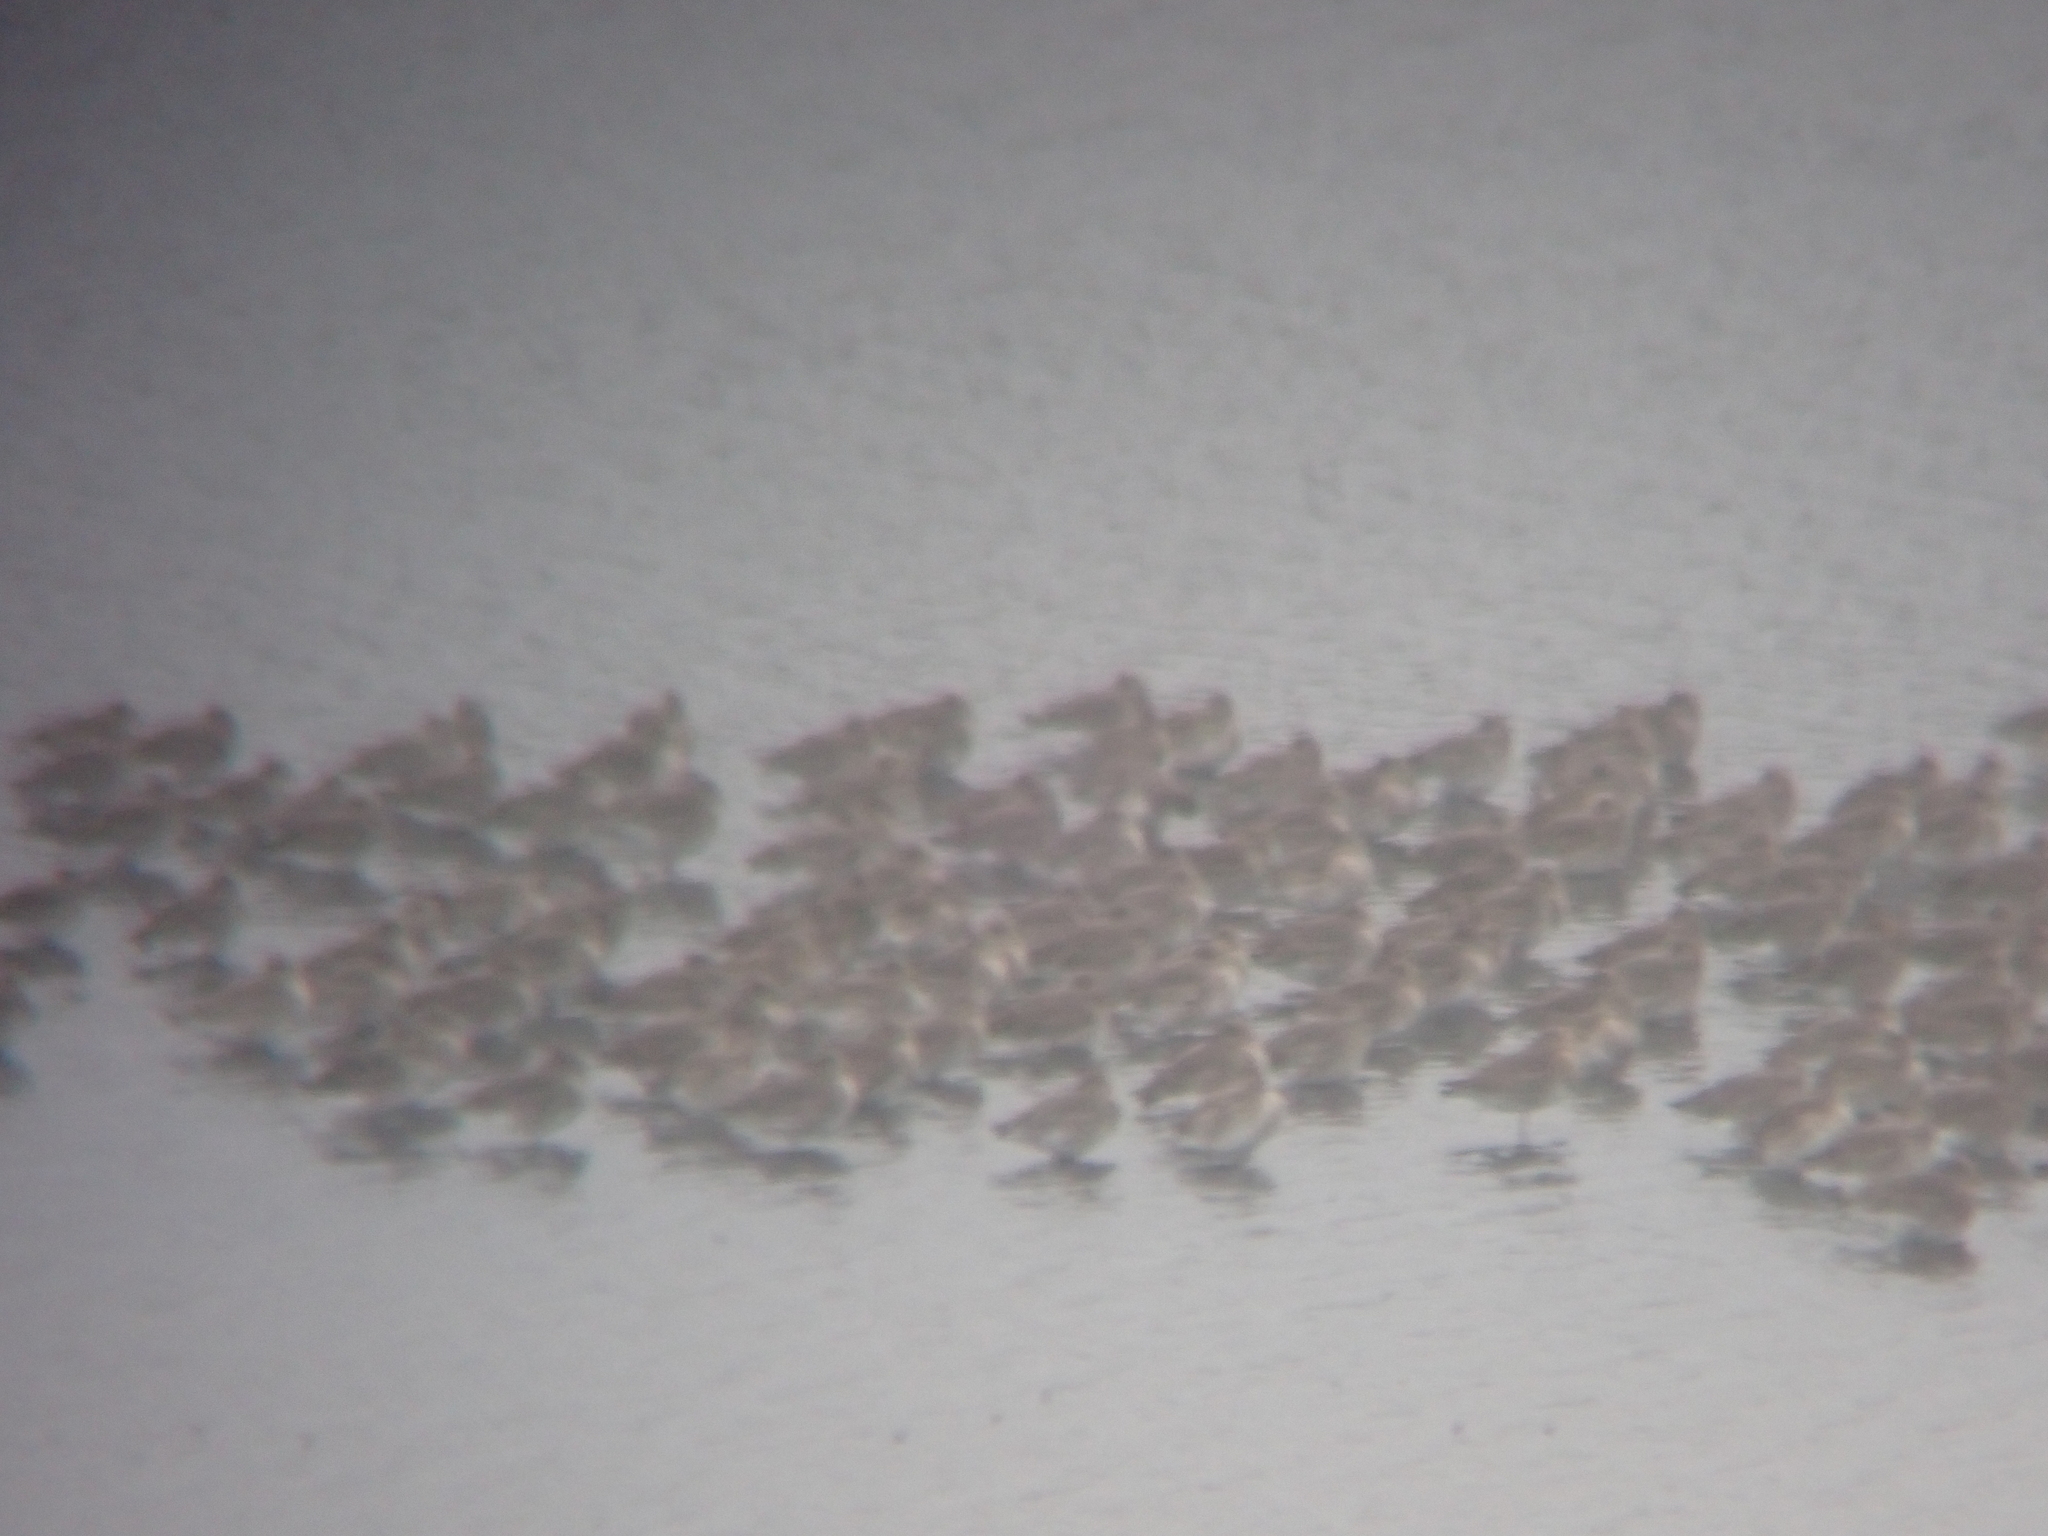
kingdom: Animalia
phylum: Chordata
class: Aves
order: Charadriiformes
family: Scolopacidae
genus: Calidris
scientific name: Calidris alpina
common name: Dunlin
